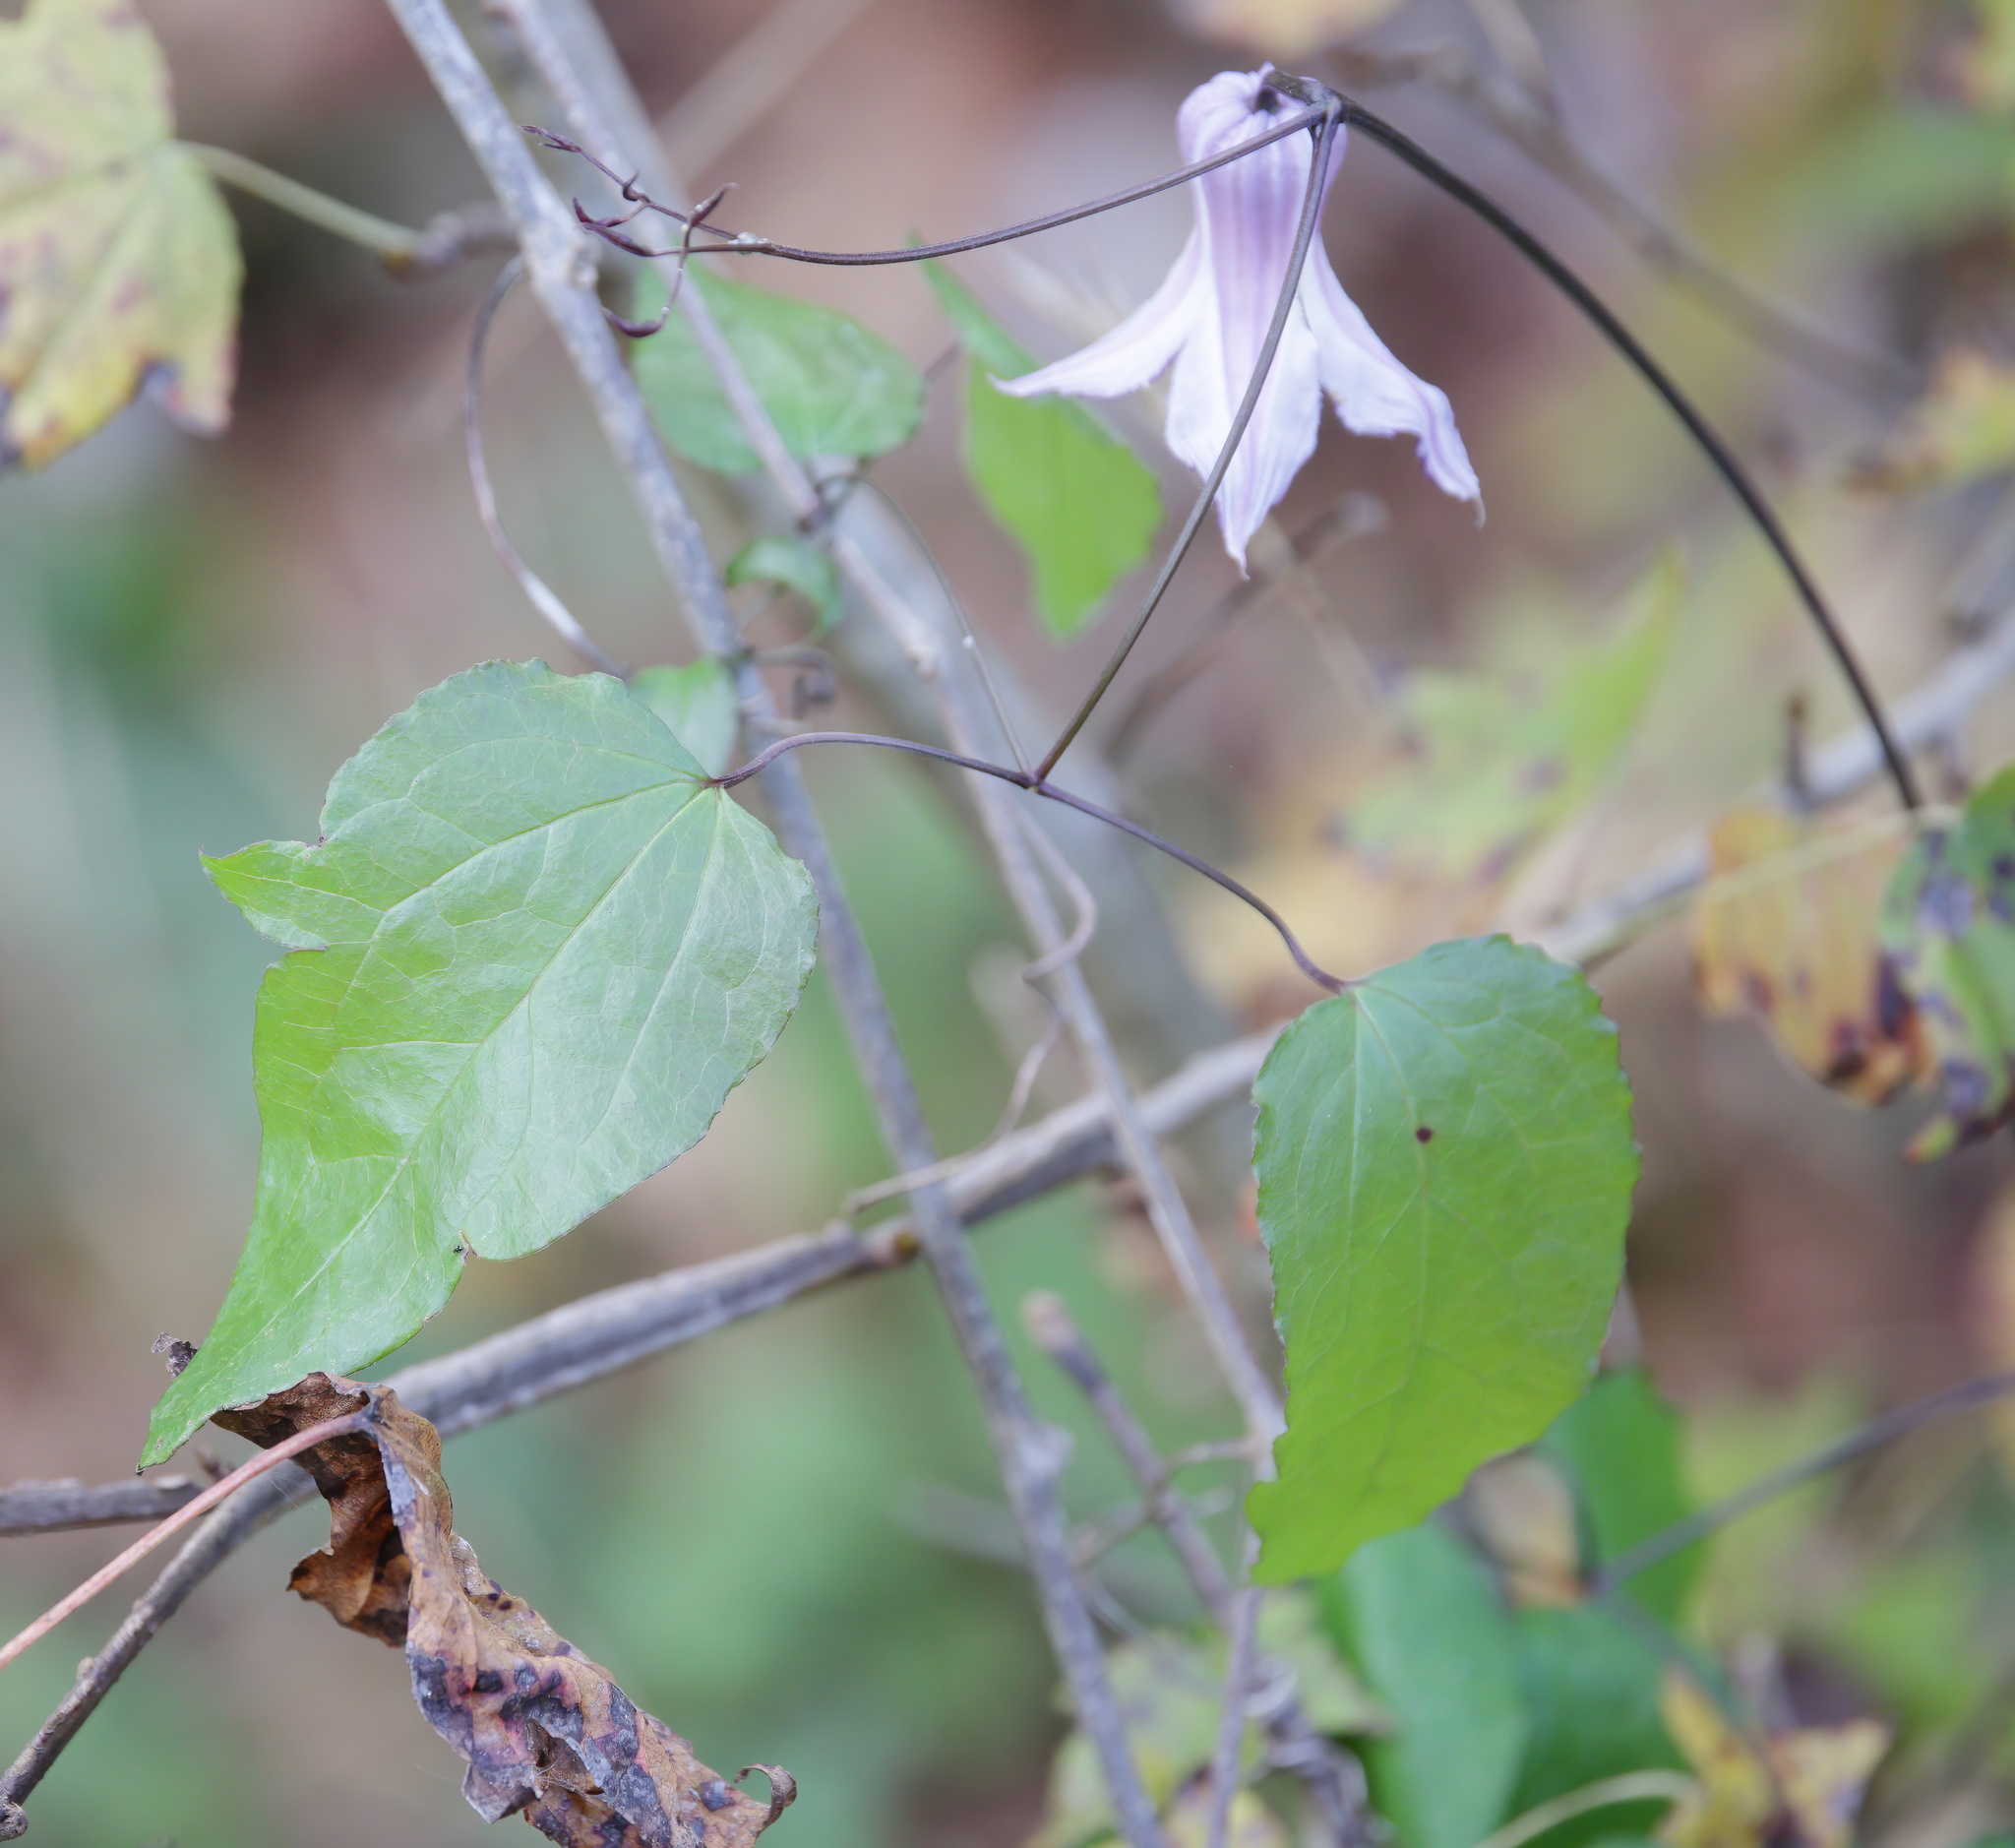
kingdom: Plantae
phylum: Tracheophyta
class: Magnoliopsida
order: Ranunculales
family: Ranunculaceae
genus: Clematis
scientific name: Clematis crispa
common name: Curly clematis
